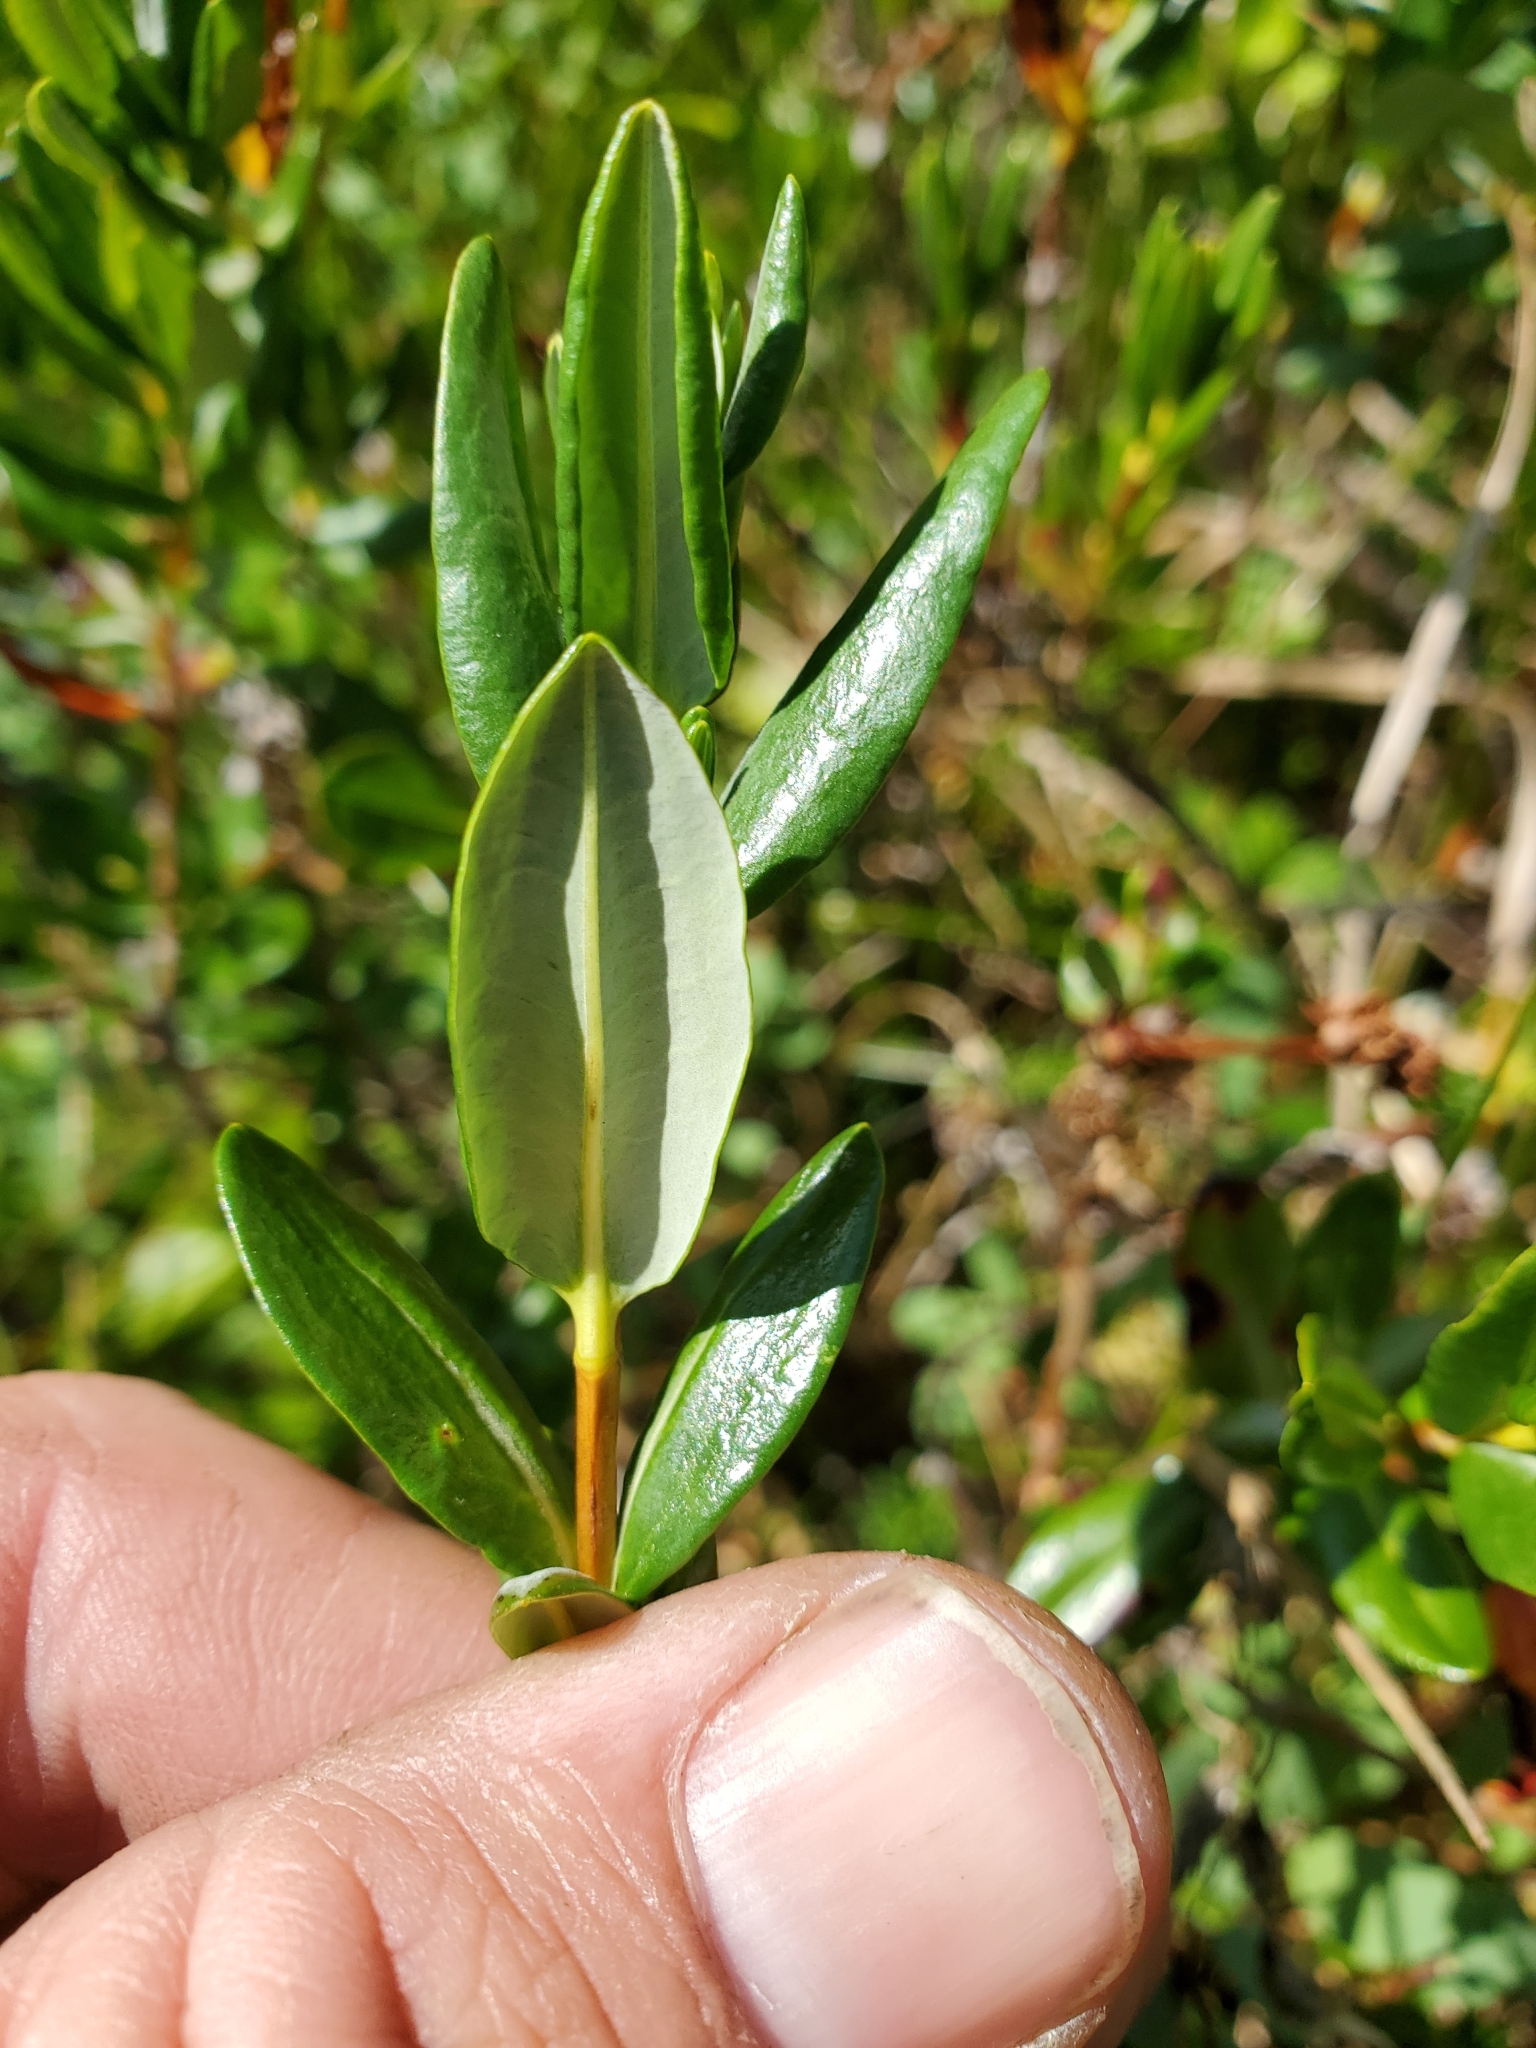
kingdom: Plantae
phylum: Tracheophyta
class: Magnoliopsida
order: Ericales
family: Ericaceae
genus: Kalmia
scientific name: Kalmia microphylla
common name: Alpine bog laurel
